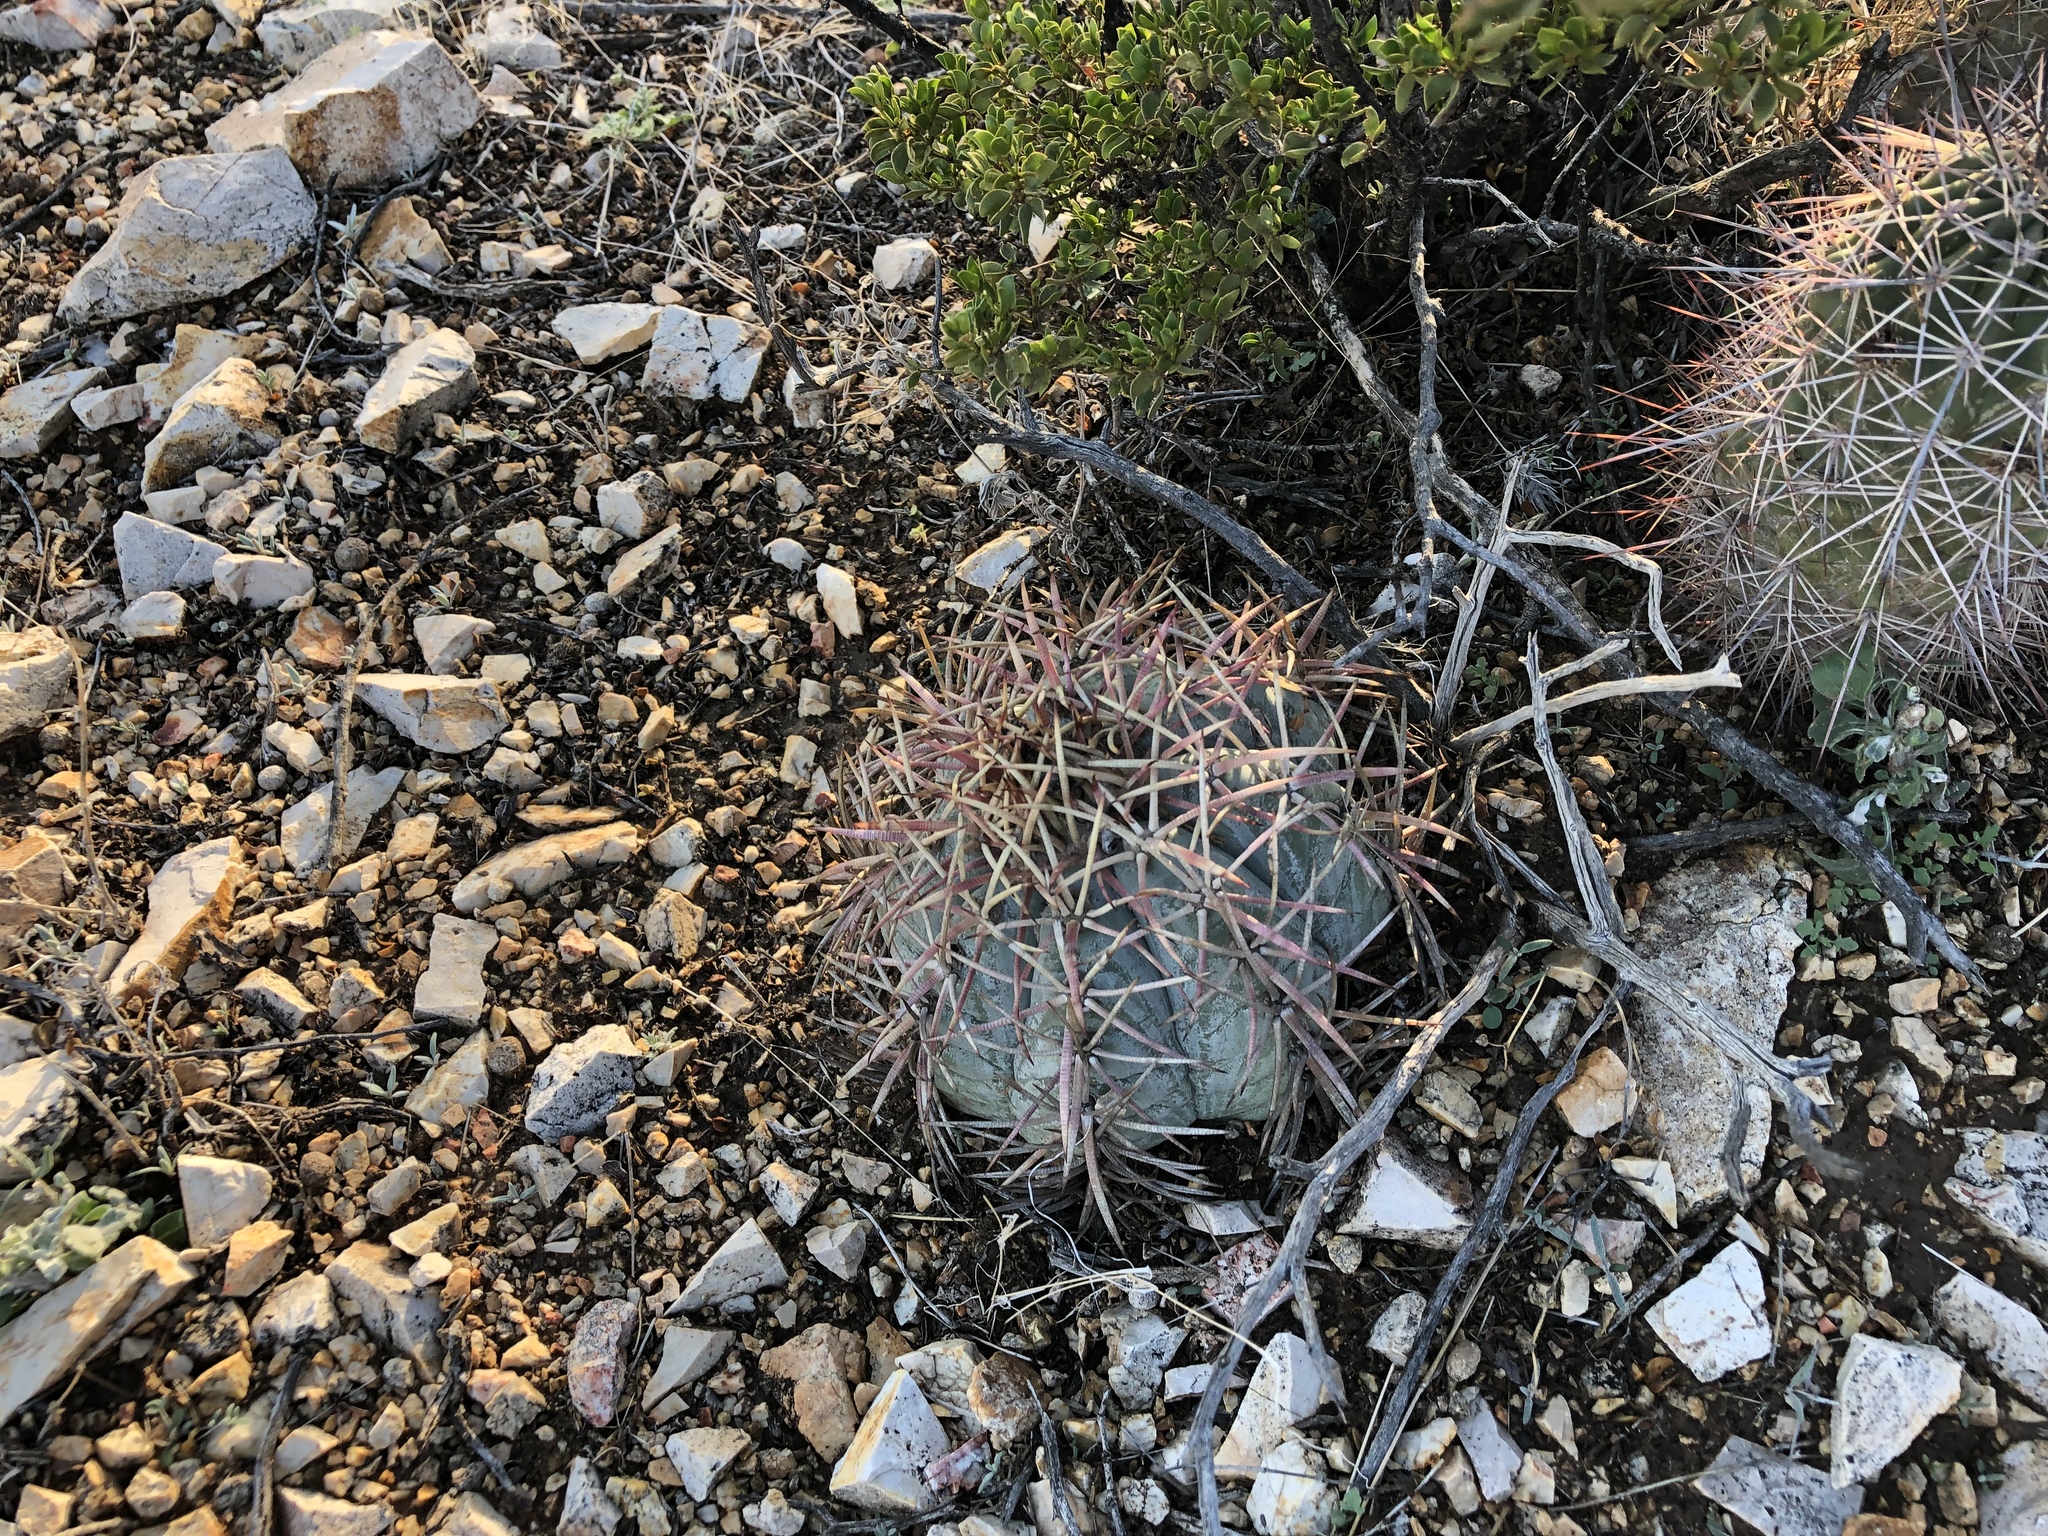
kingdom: Plantae
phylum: Tracheophyta
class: Magnoliopsida
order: Caryophyllales
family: Cactaceae
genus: Echinocactus
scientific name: Echinocactus horizonthalonius
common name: Devilshead
